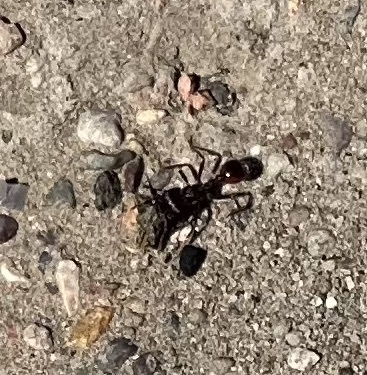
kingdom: Animalia
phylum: Arthropoda
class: Insecta
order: Hymenoptera
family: Formicidae
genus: Pogonomyrmex
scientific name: Pogonomyrmex rugosus
